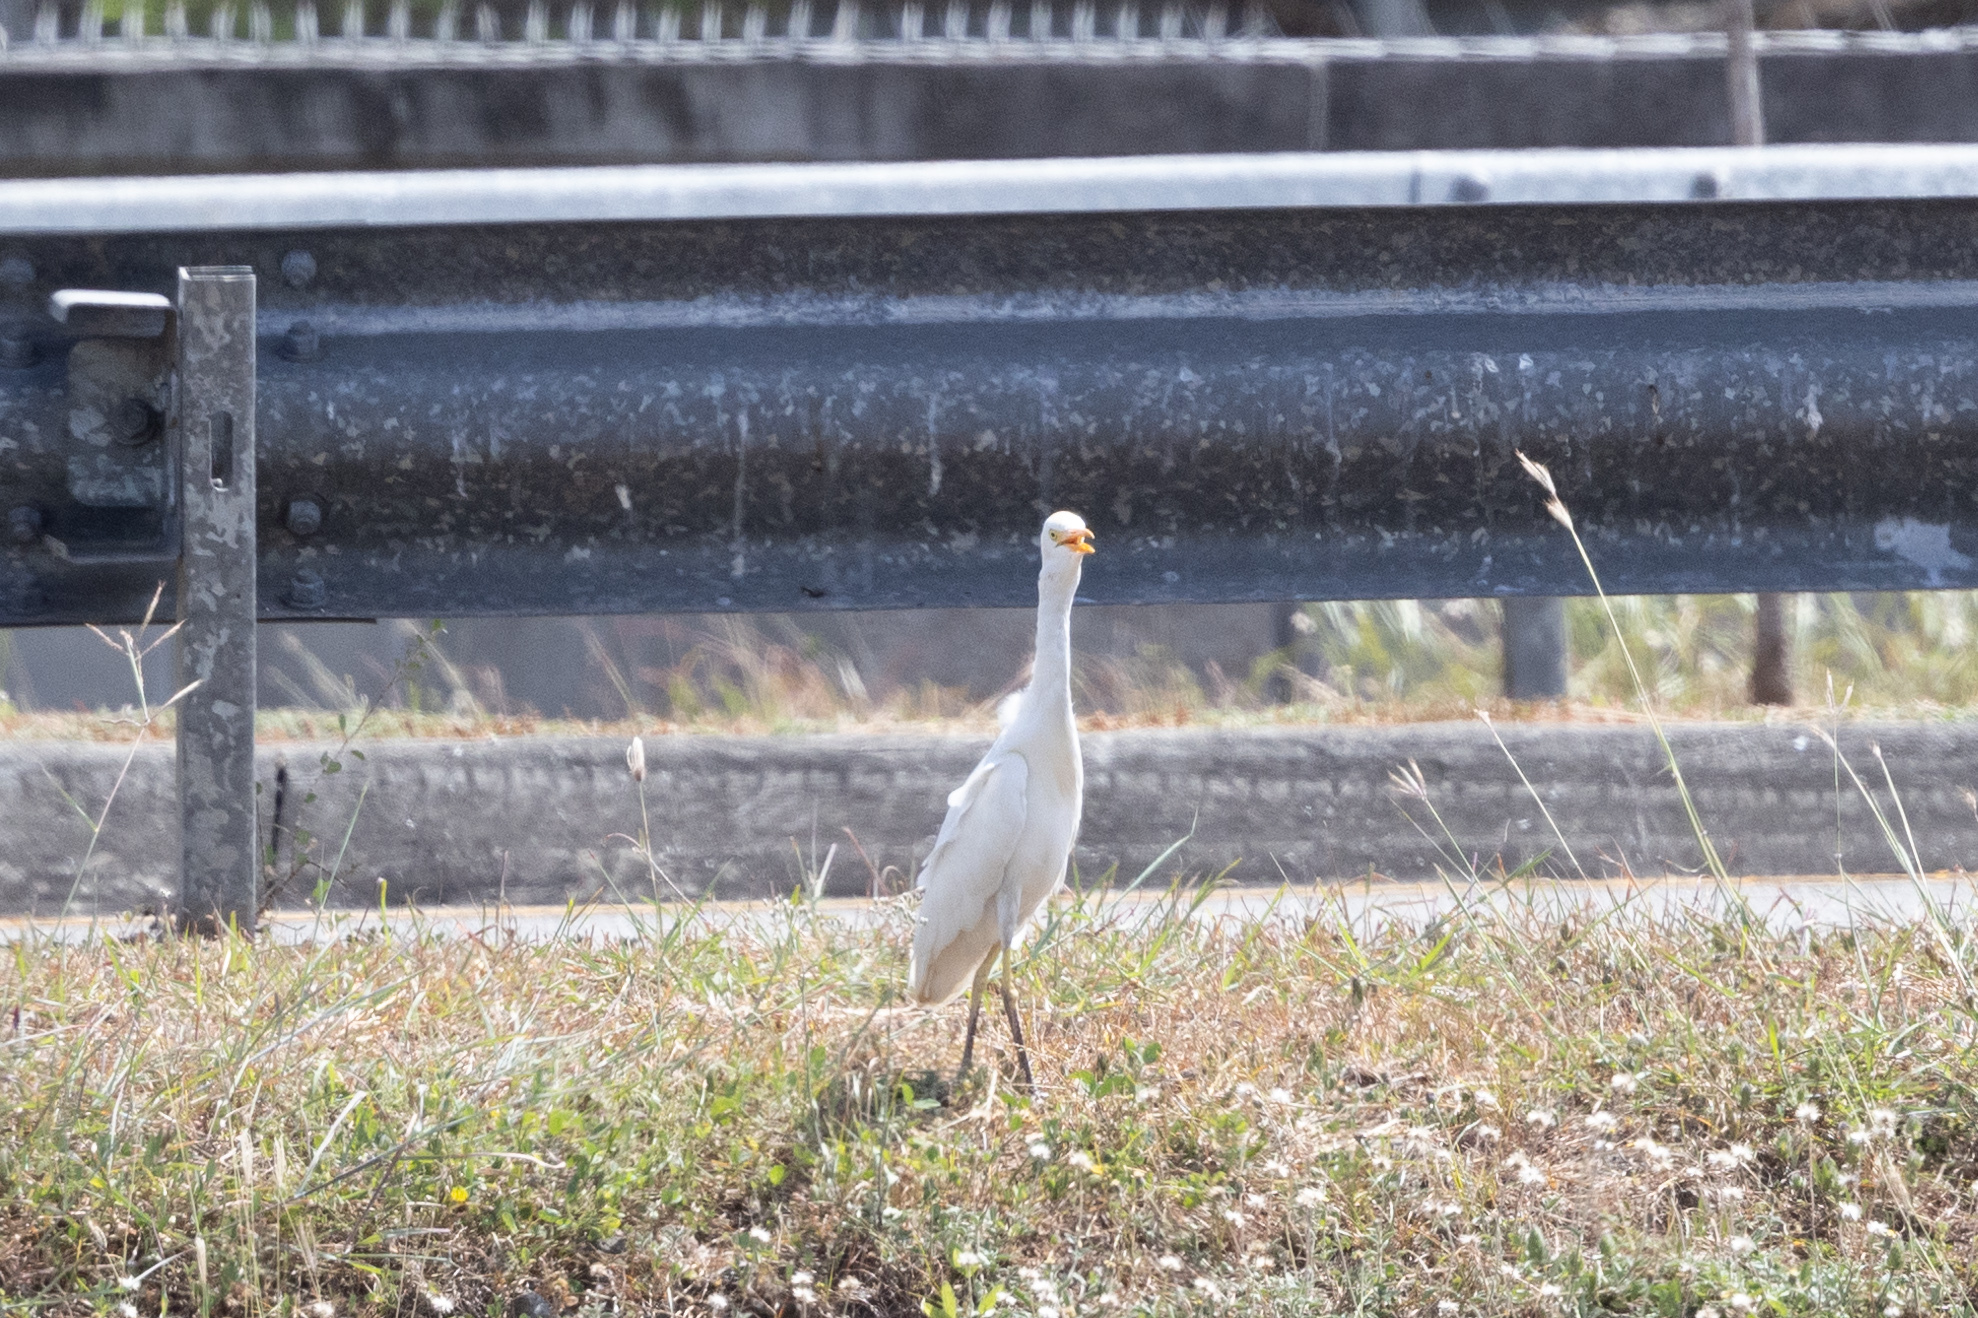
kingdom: Animalia
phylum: Chordata
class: Aves
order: Pelecaniformes
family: Ardeidae
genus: Bubulcus
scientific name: Bubulcus ibis
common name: Cattle egret
